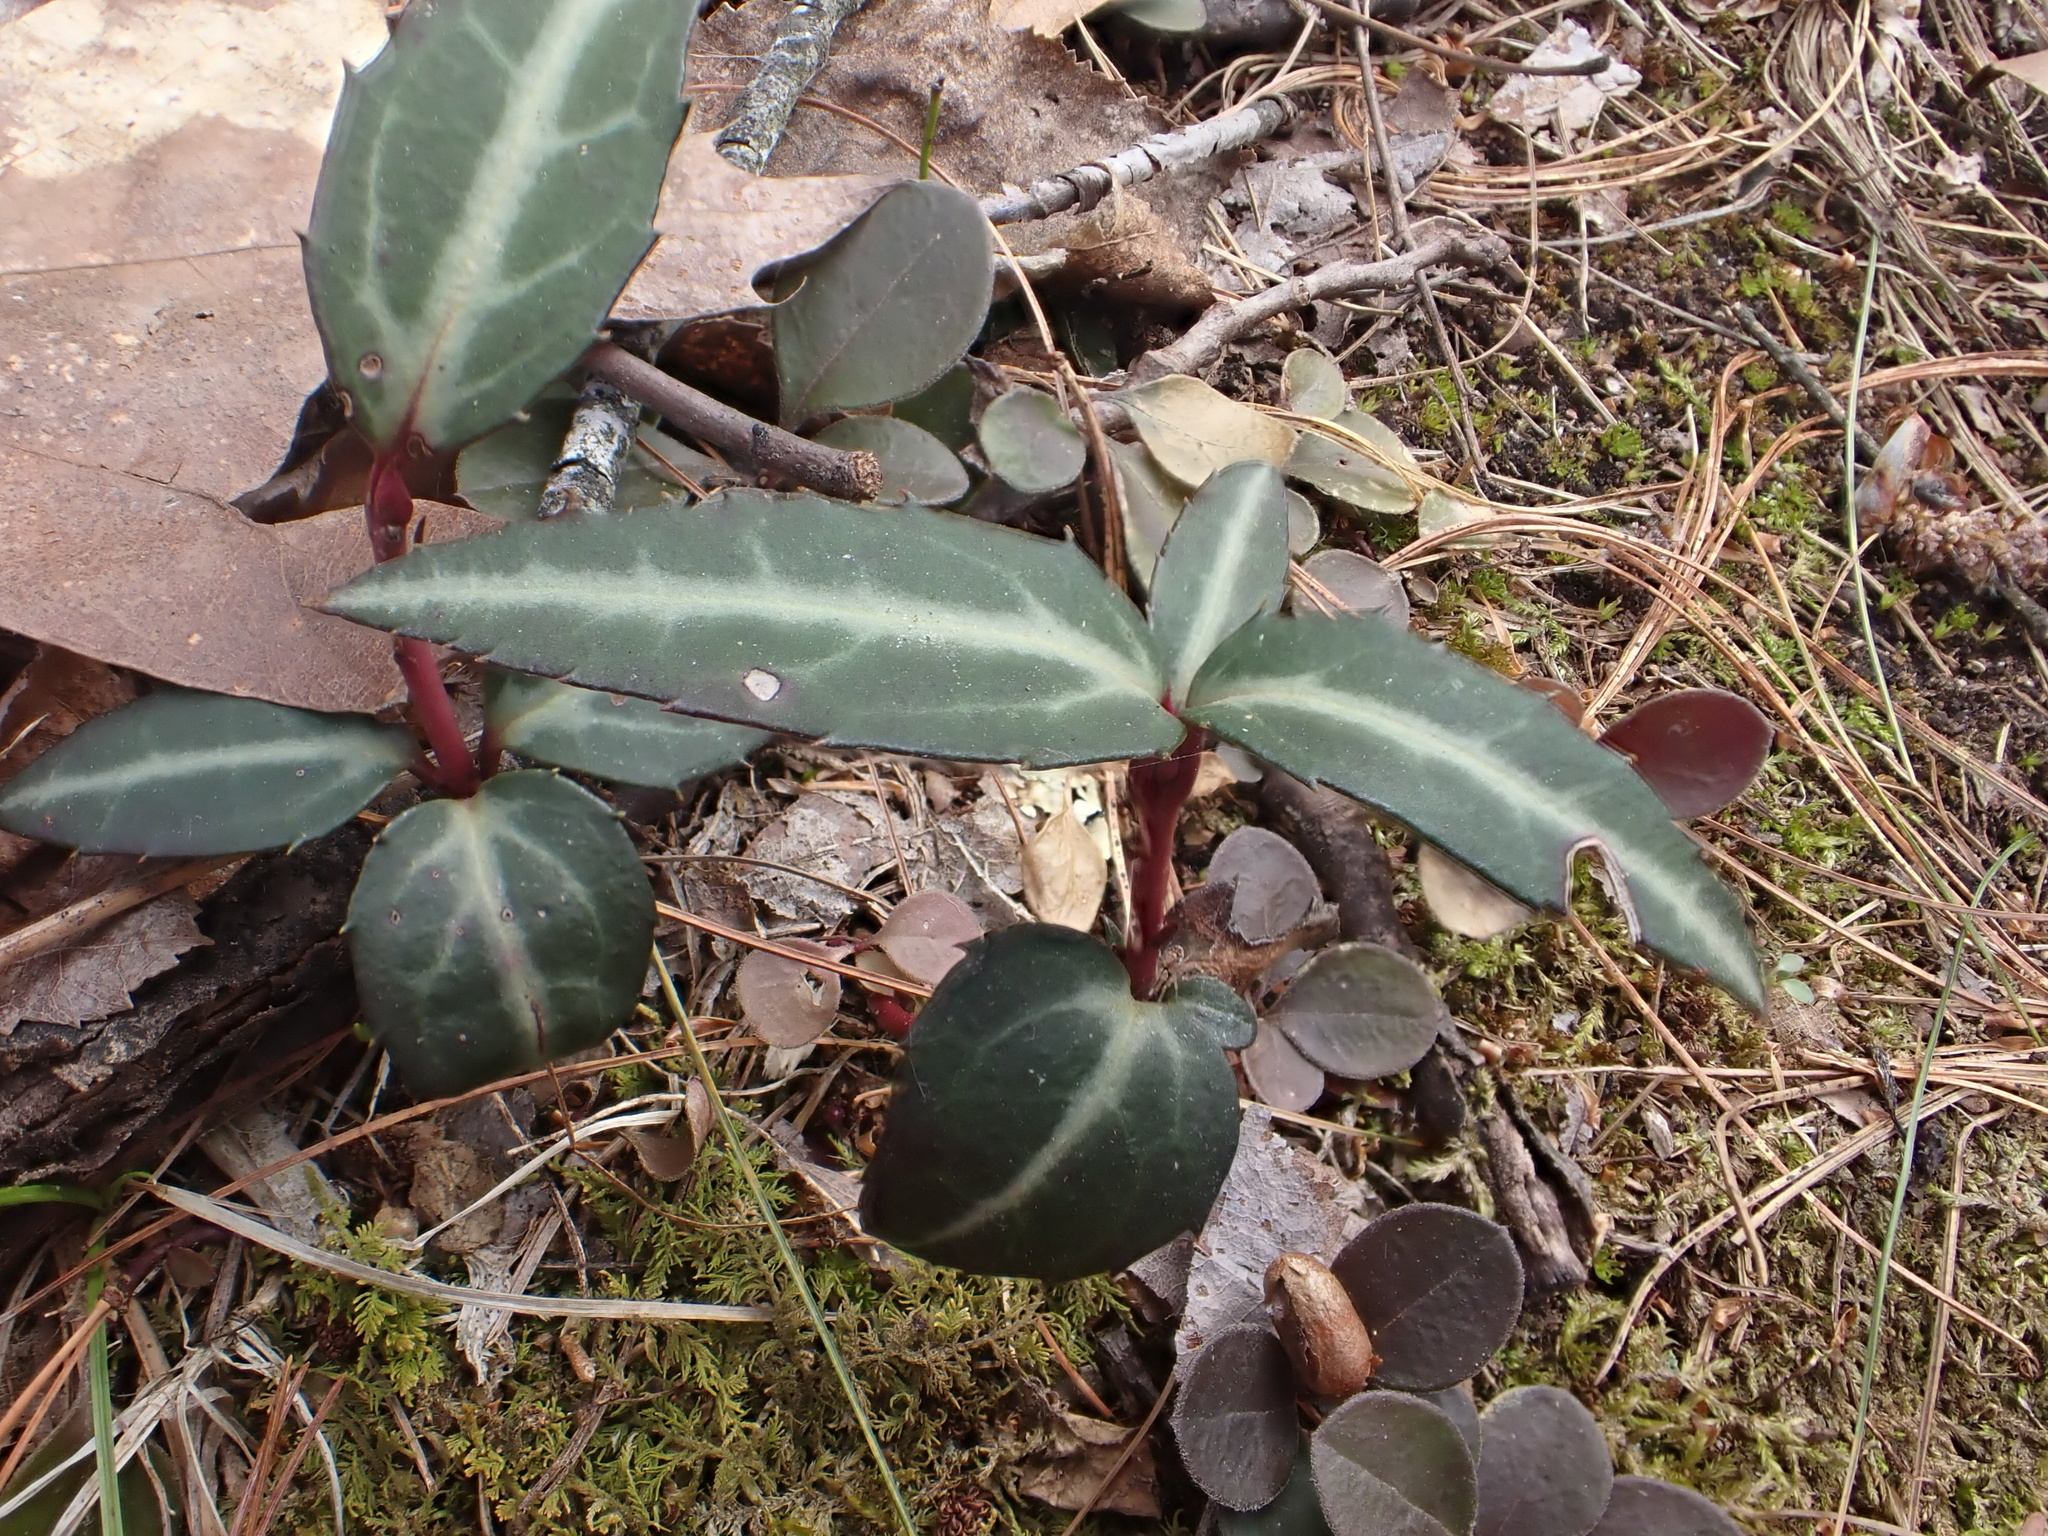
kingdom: Plantae
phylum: Tracheophyta
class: Magnoliopsida
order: Ericales
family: Ericaceae
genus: Chimaphila
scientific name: Chimaphila maculata
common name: Spotted pipsissewa
